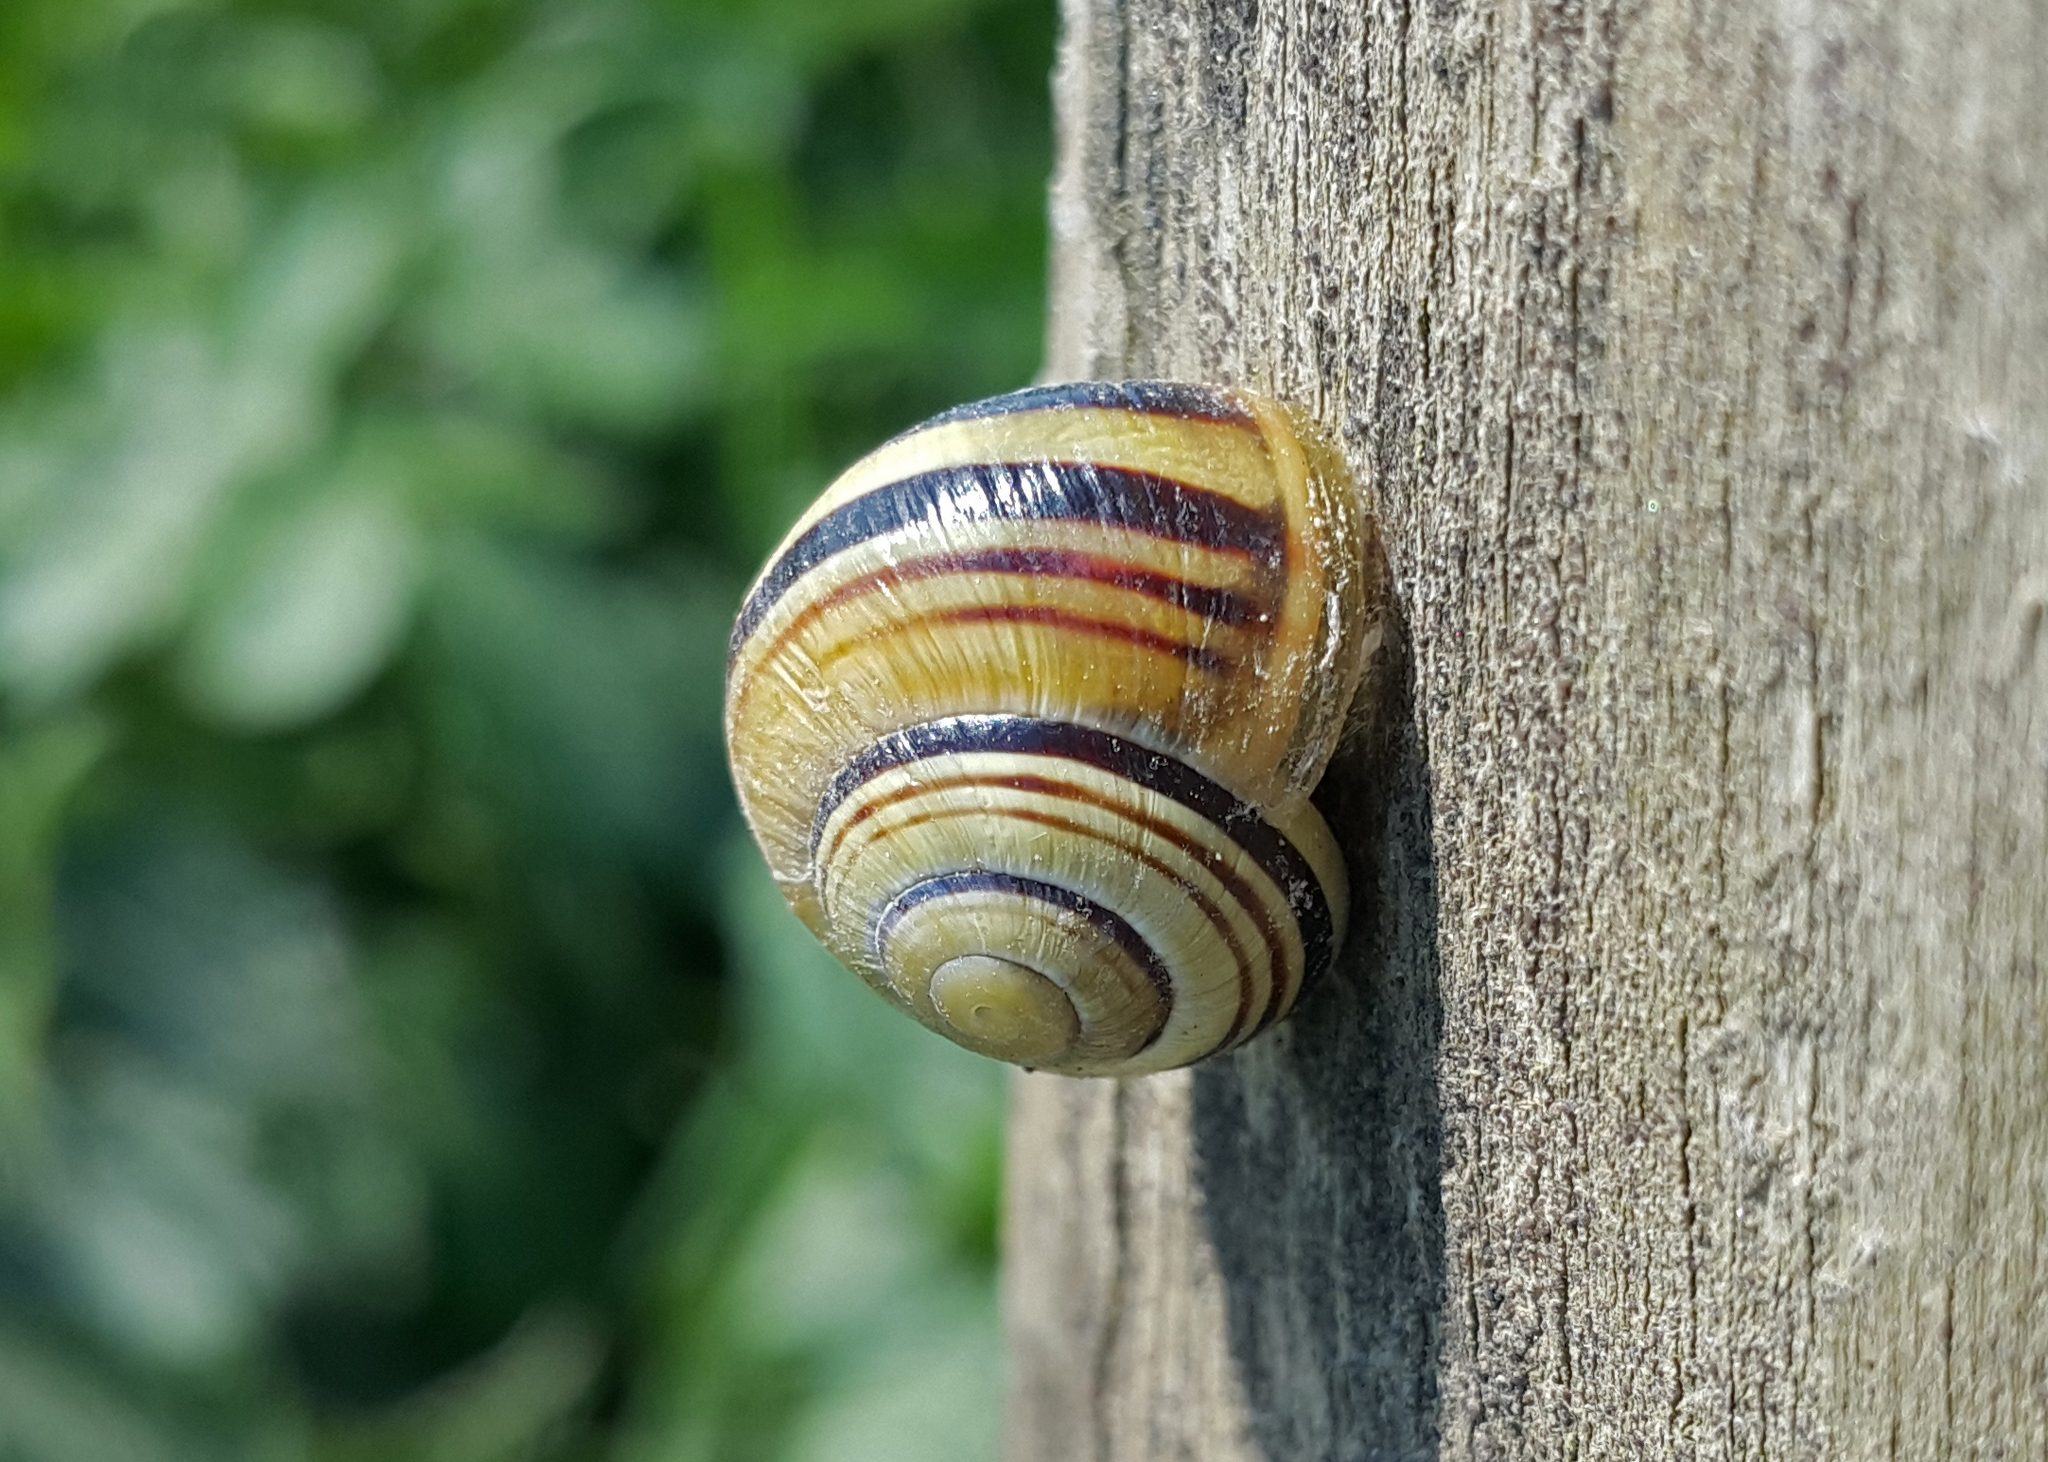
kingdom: Animalia
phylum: Mollusca
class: Gastropoda
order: Stylommatophora
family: Helicidae
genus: Cepaea
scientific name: Cepaea
